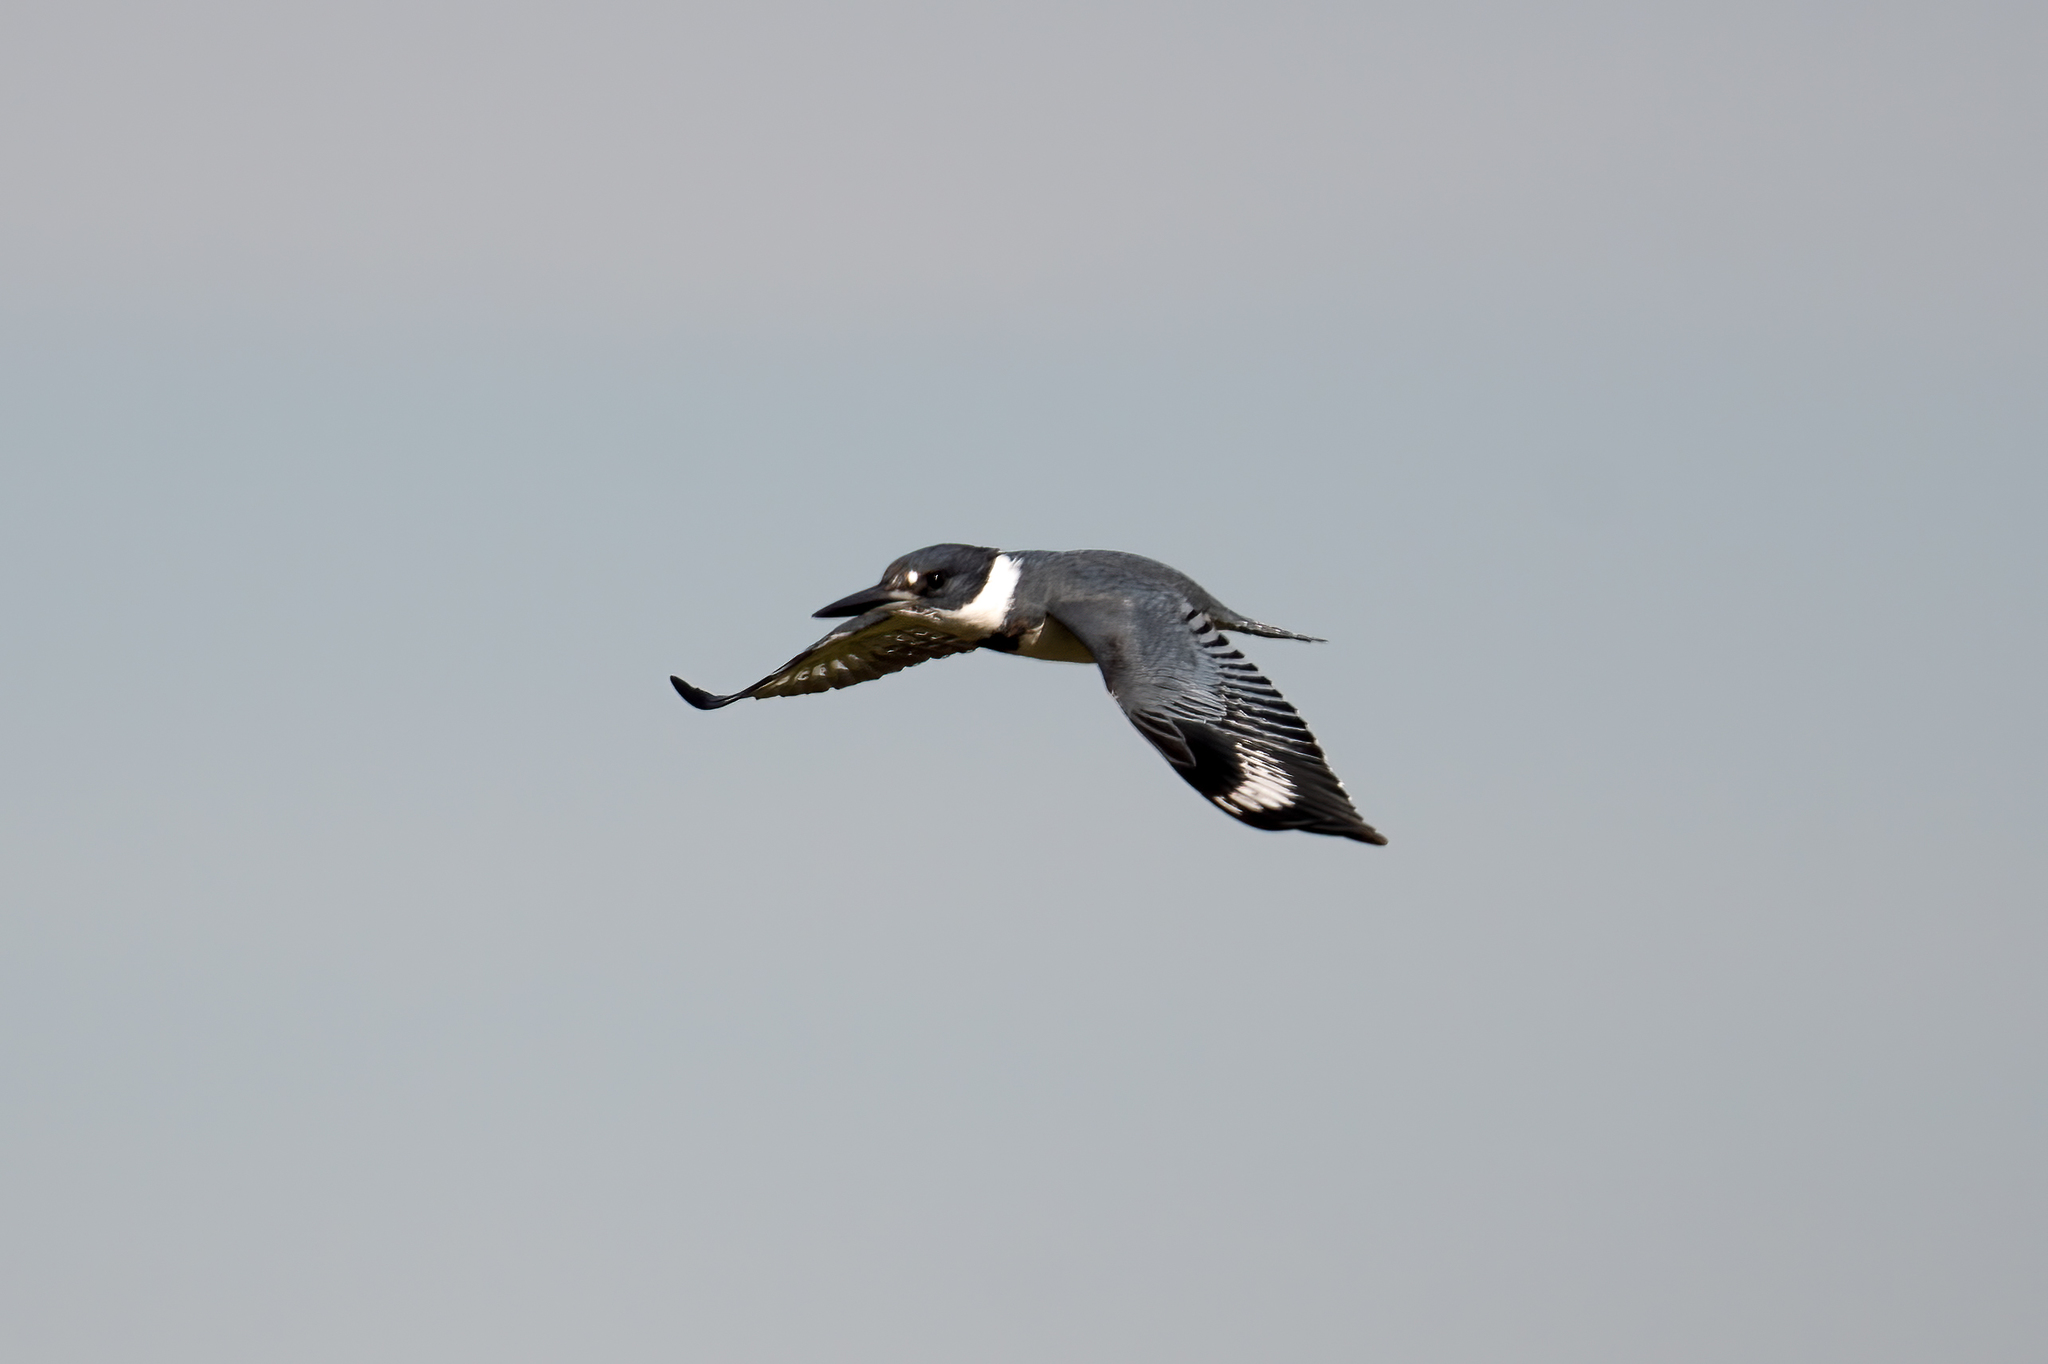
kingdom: Animalia
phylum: Chordata
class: Aves
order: Coraciiformes
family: Alcedinidae
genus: Megaceryle
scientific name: Megaceryle alcyon
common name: Belted kingfisher
